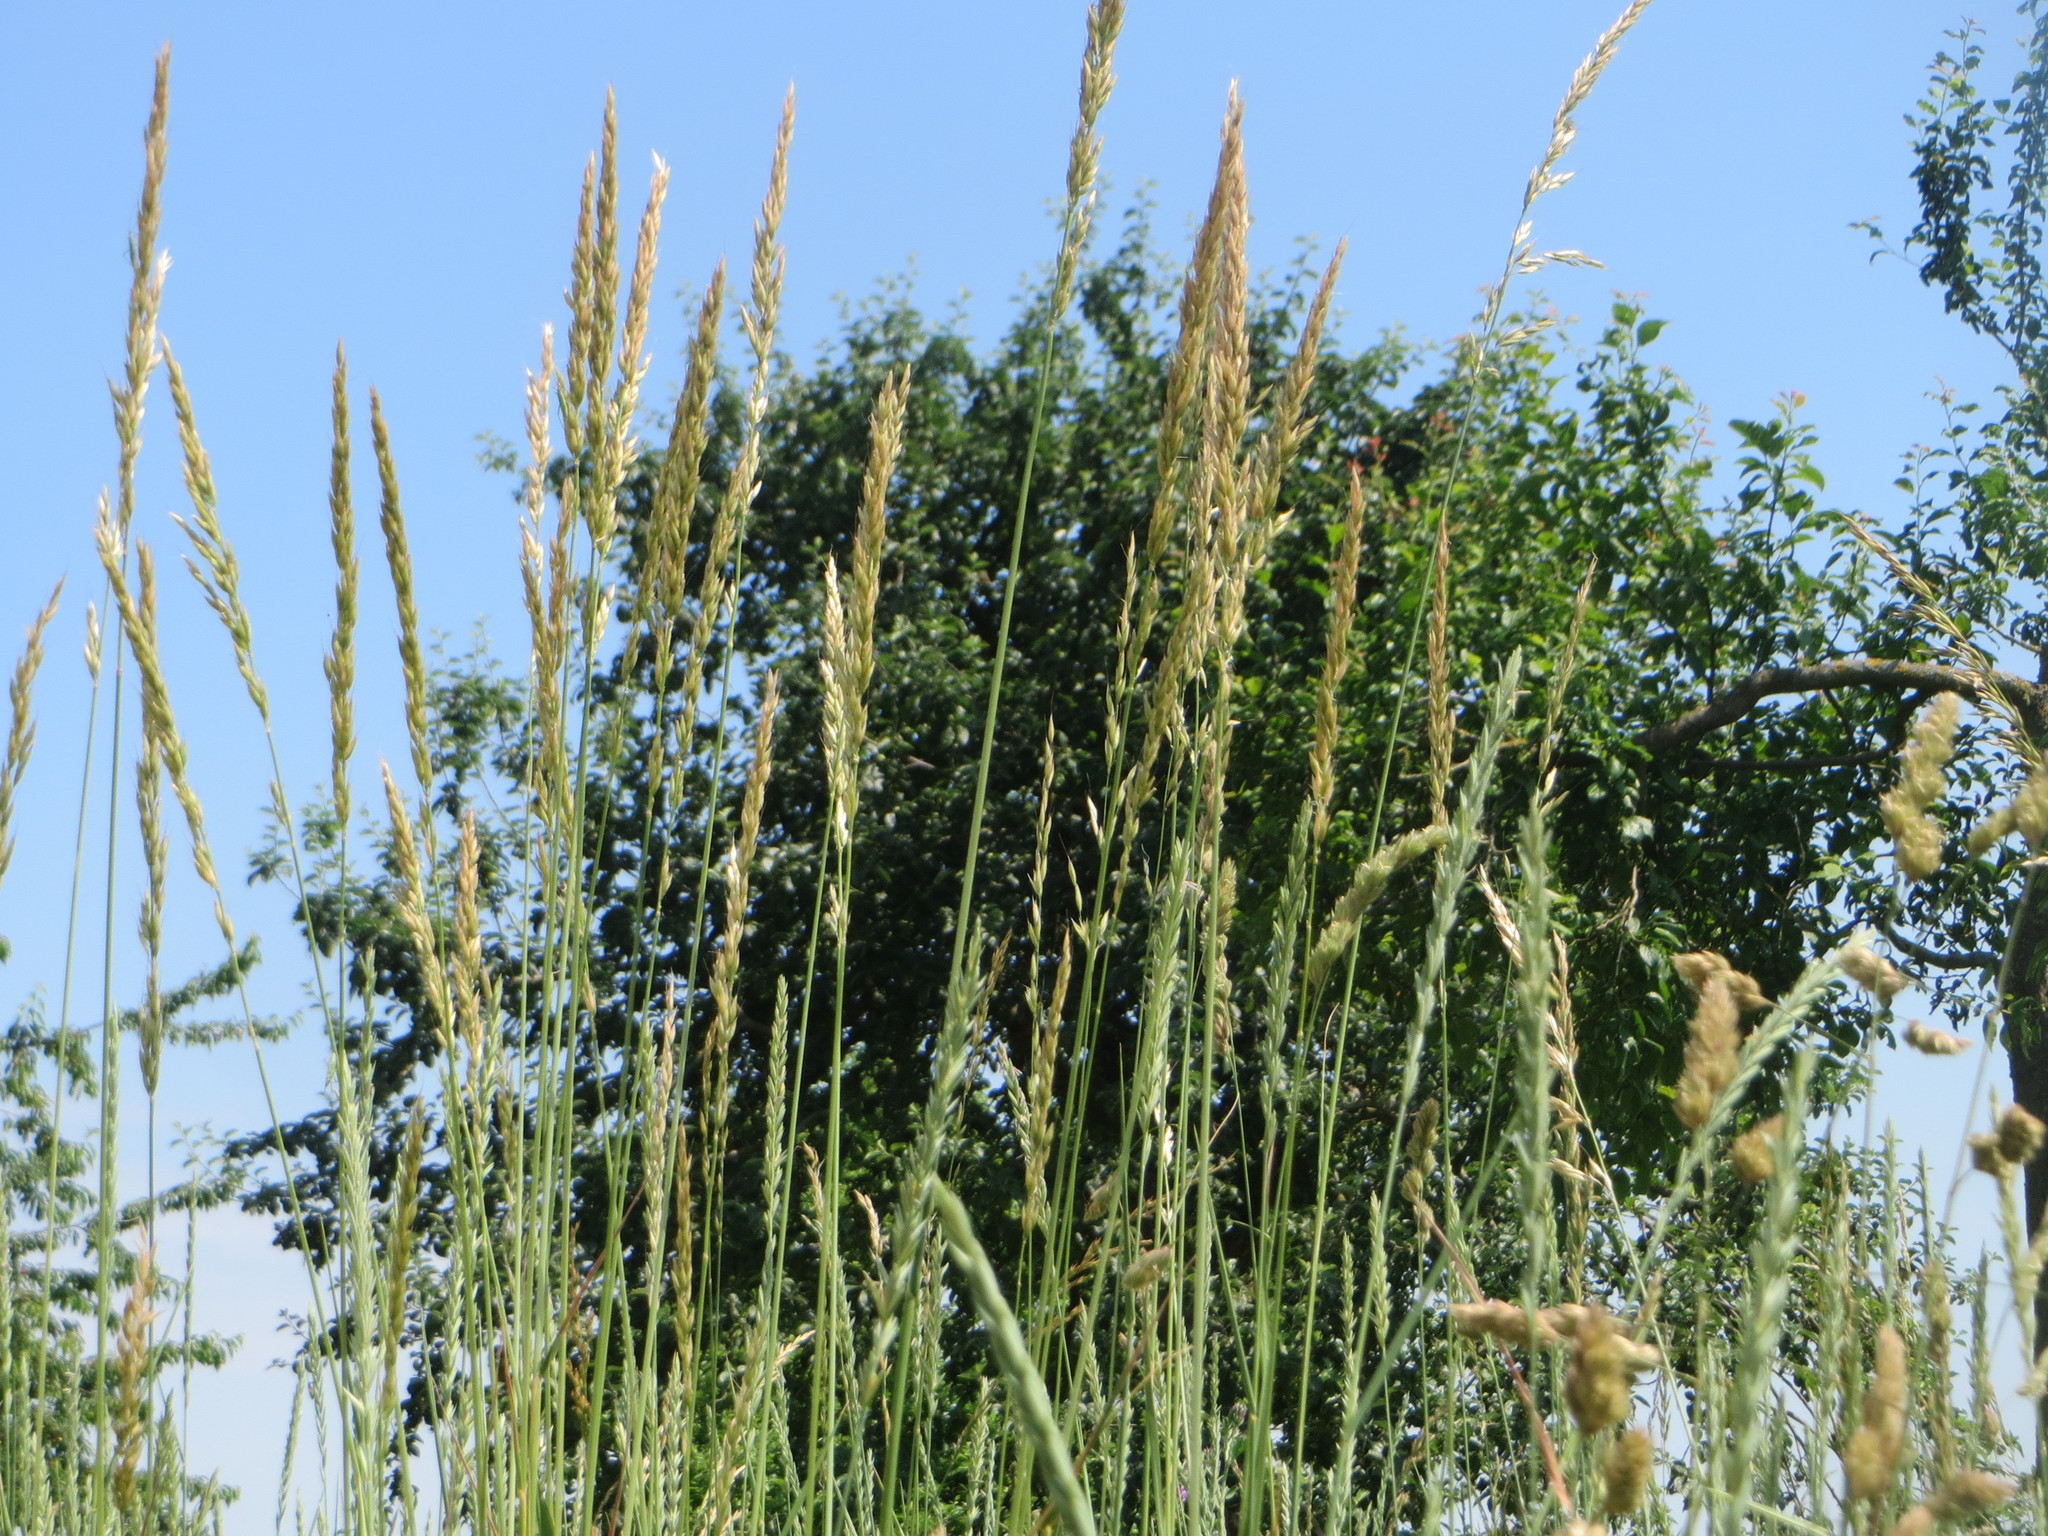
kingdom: Plantae
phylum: Tracheophyta
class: Liliopsida
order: Poales
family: Poaceae
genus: Arrhenatherum
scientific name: Arrhenatherum elatius
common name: Tall oatgrass
